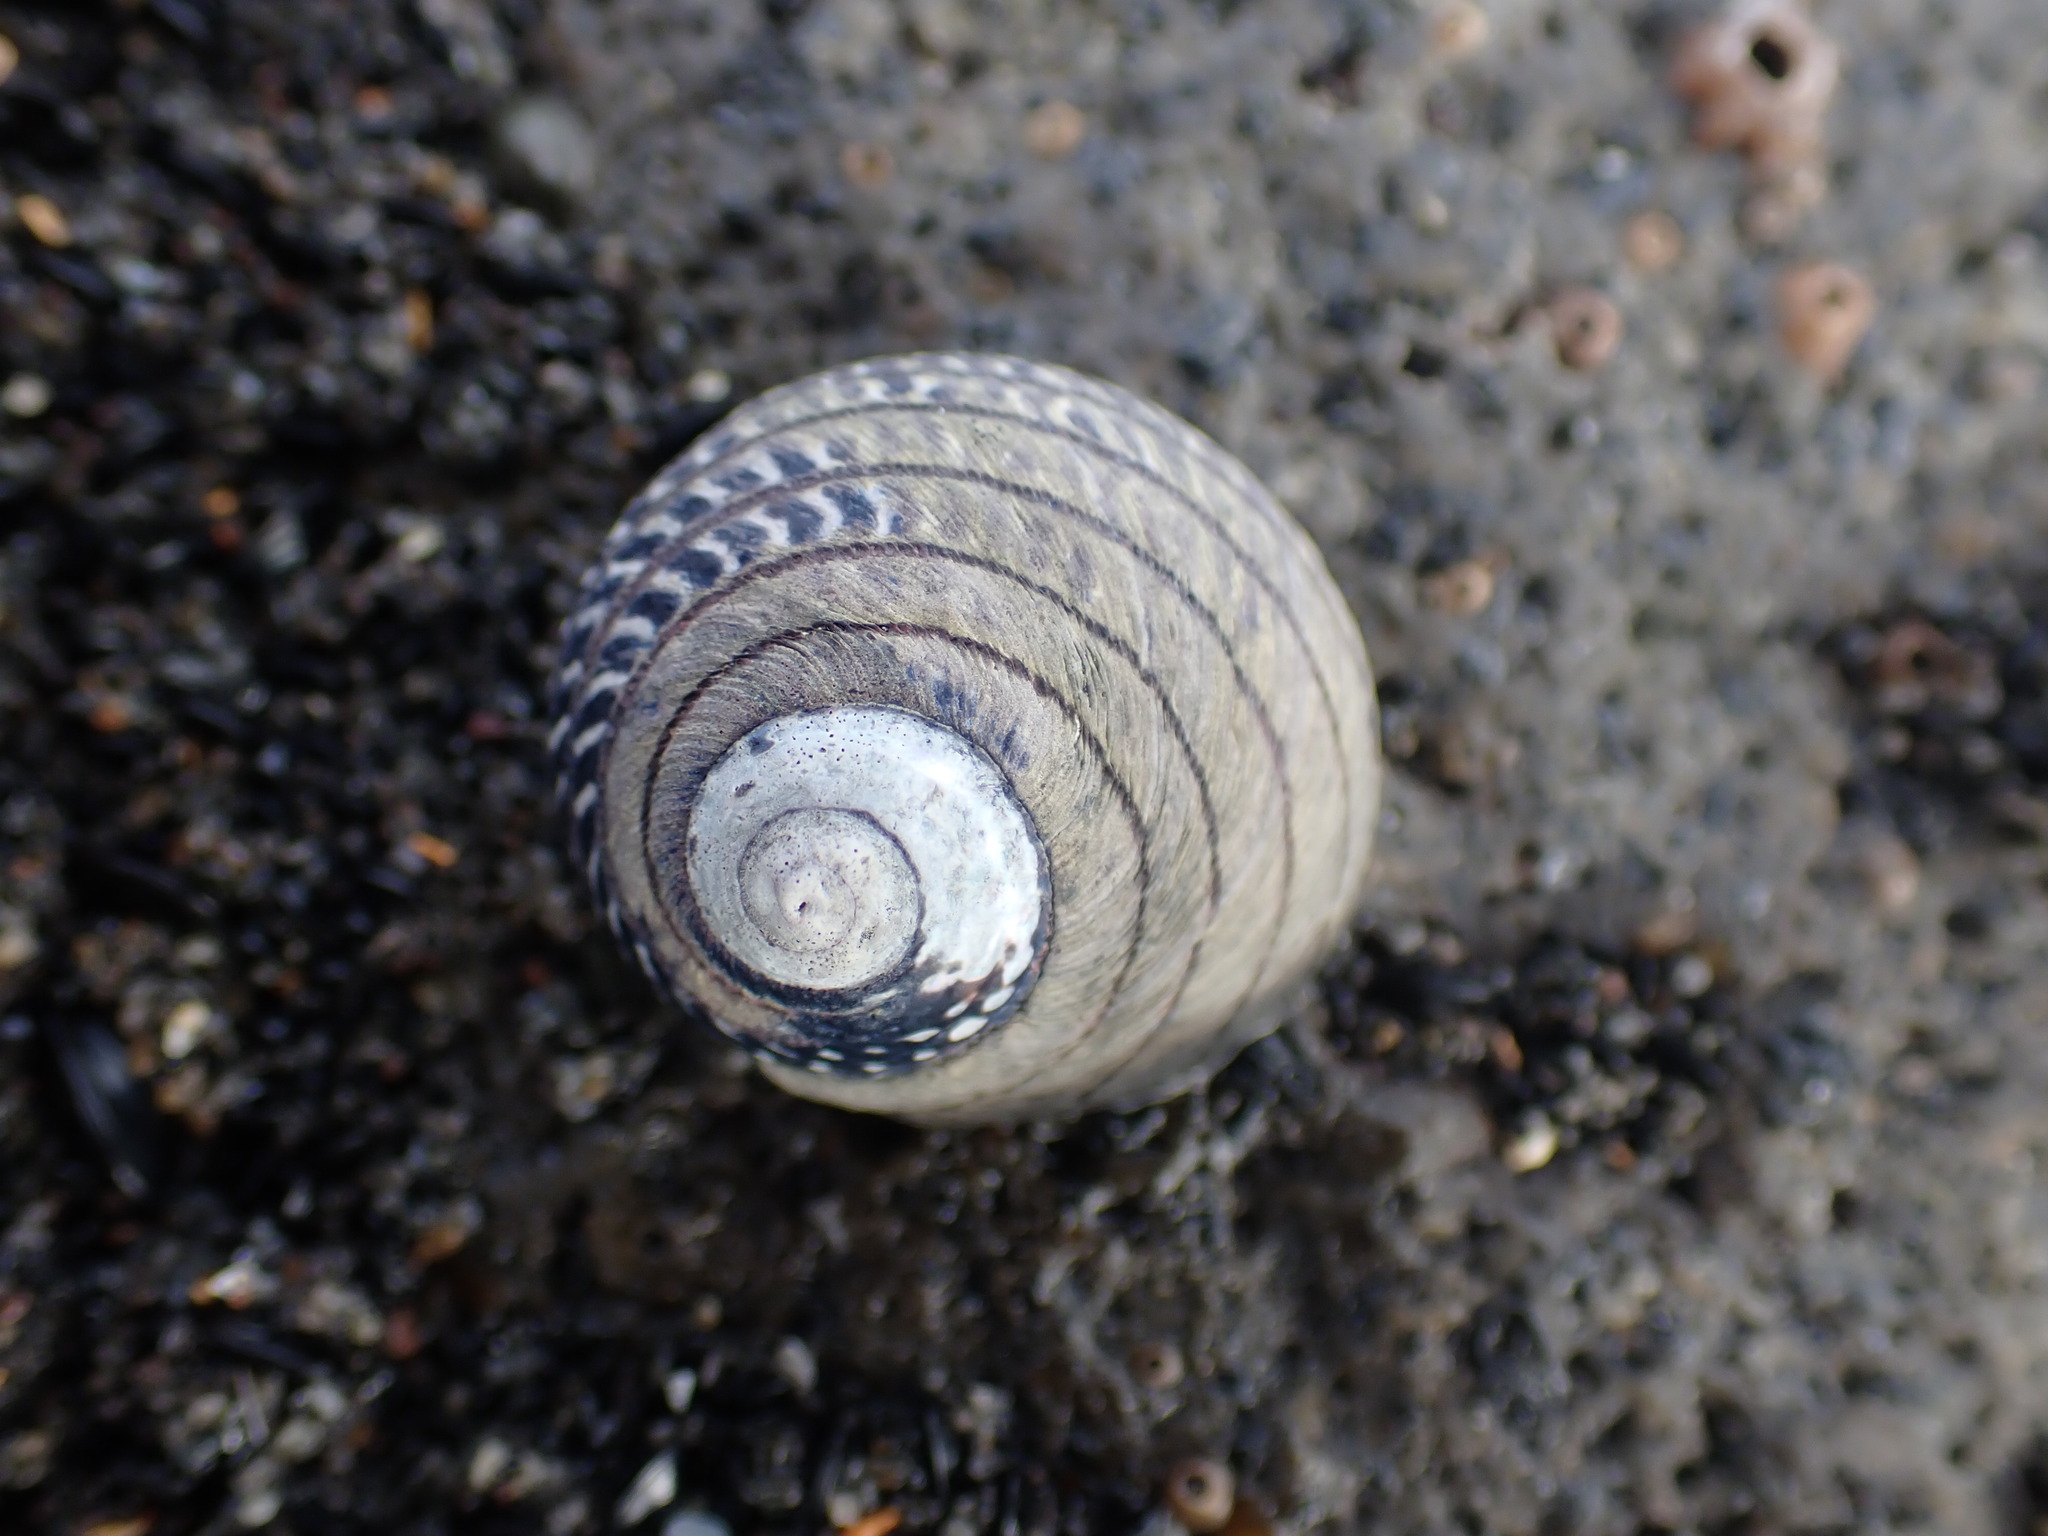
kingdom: Animalia
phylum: Mollusca
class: Gastropoda
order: Trochida
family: Trochidae
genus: Diloma
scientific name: Diloma aethiops
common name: Scorched monodont
